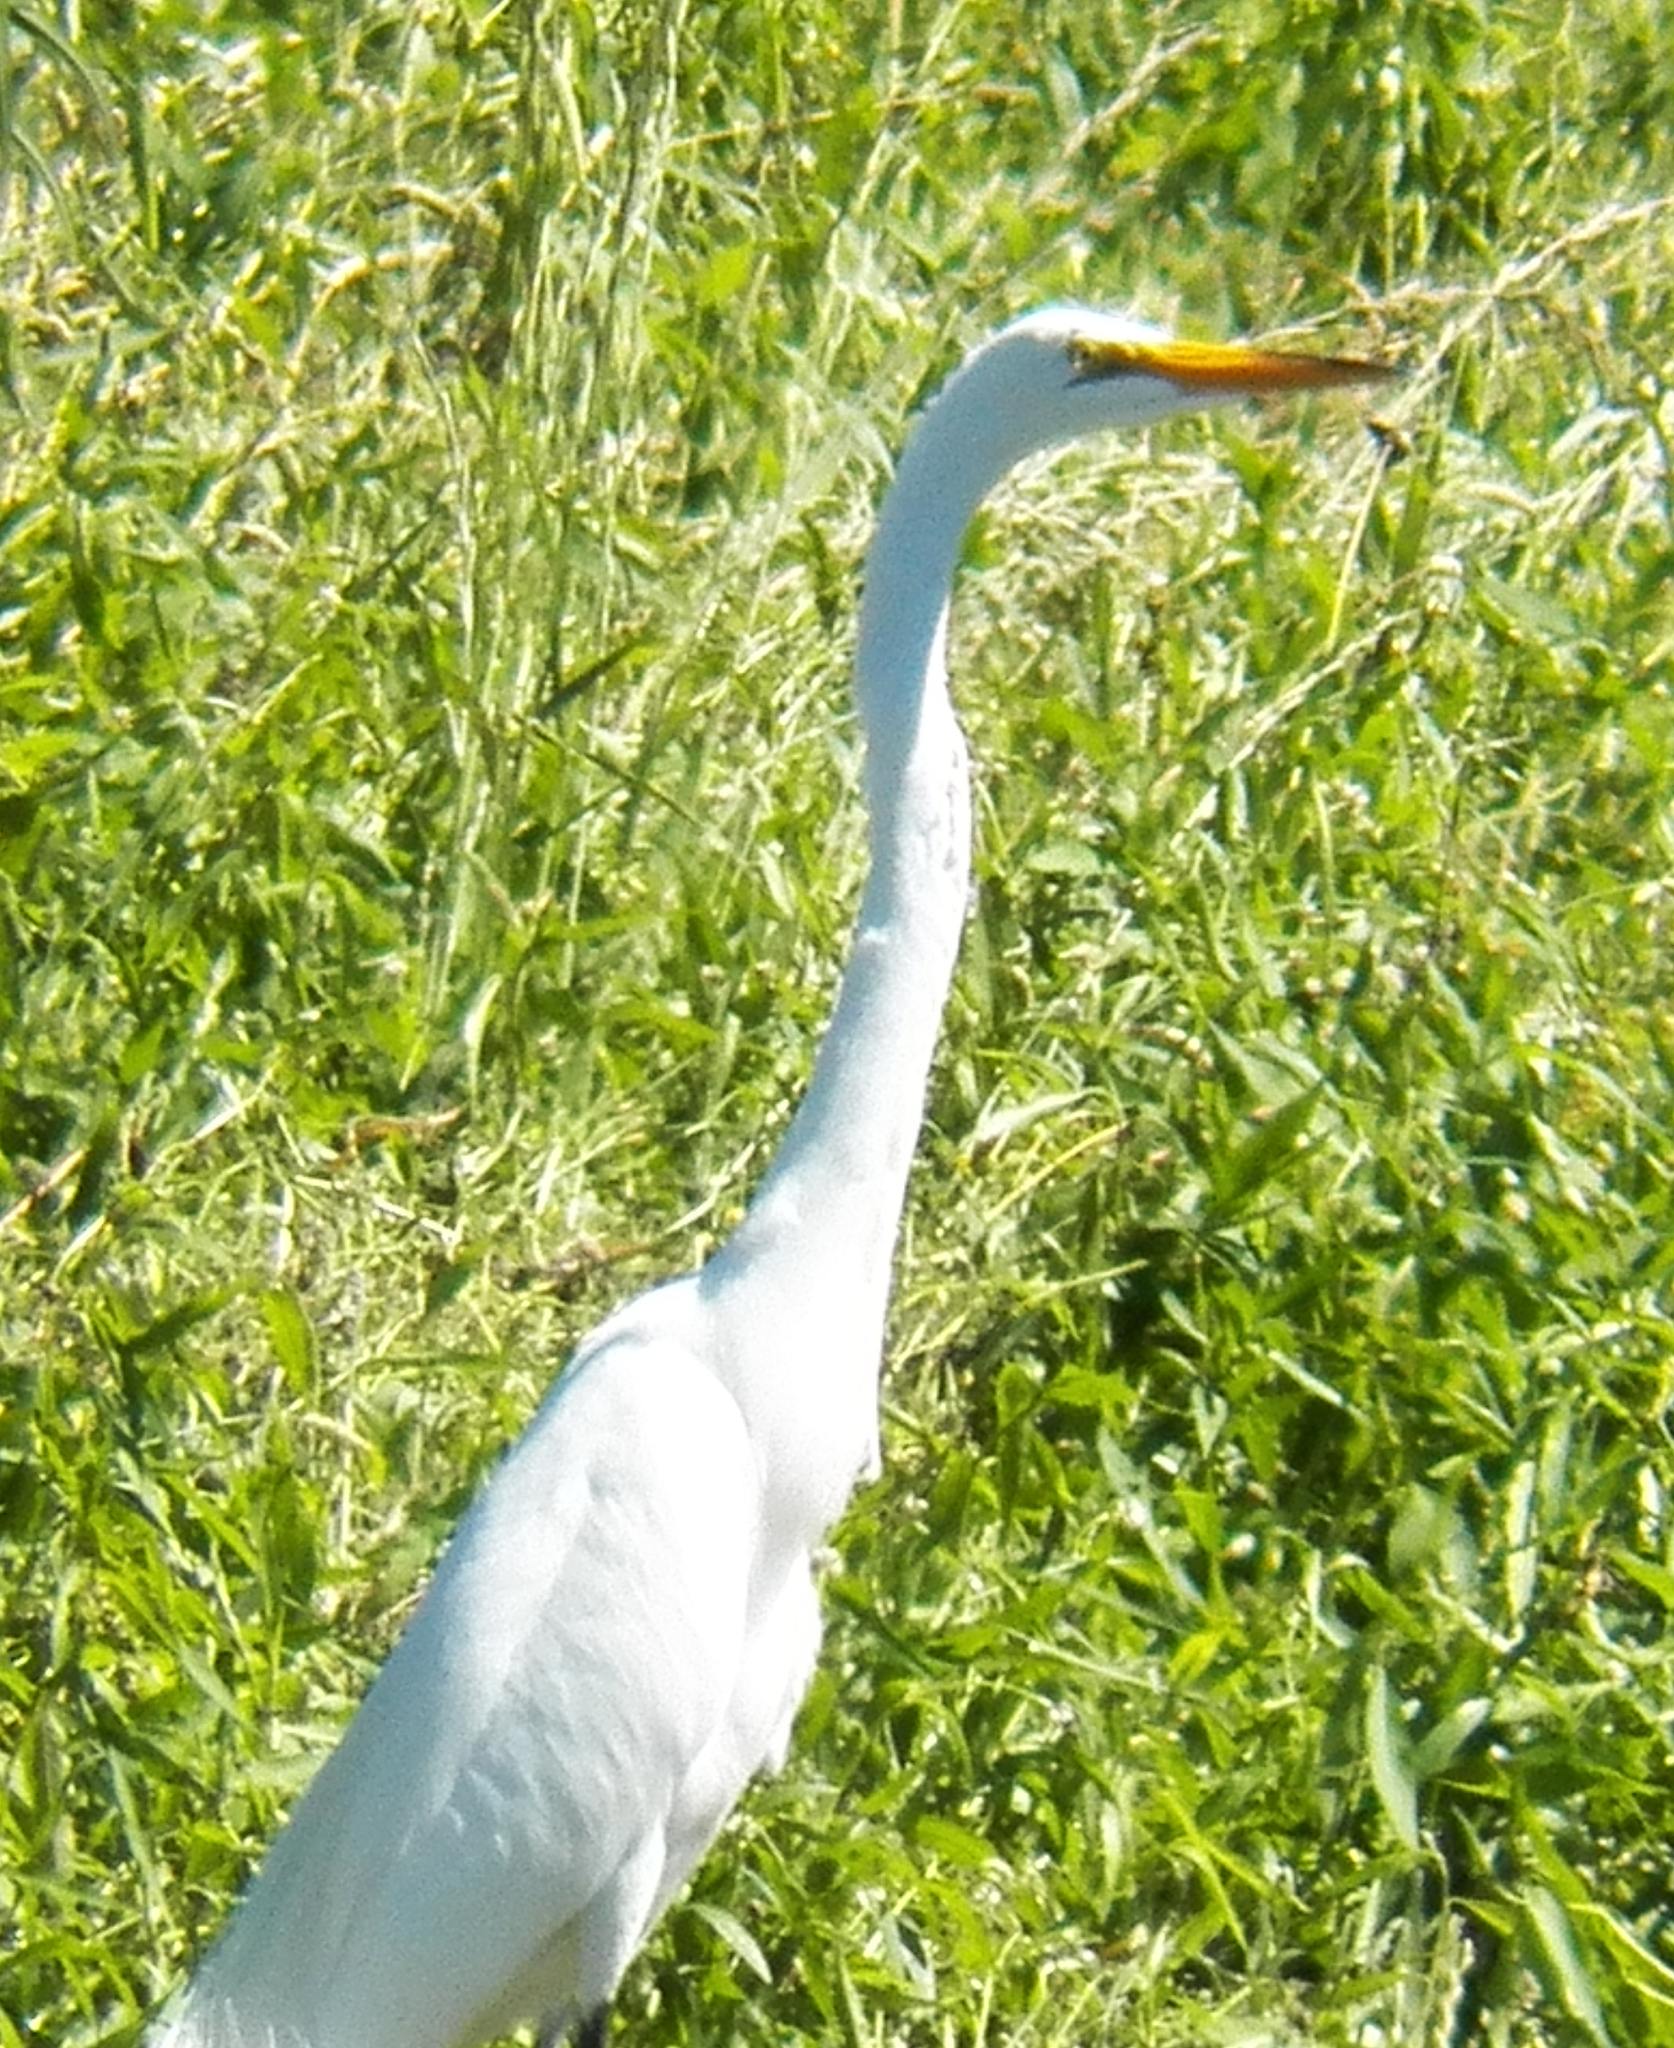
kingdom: Animalia
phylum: Chordata
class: Aves
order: Pelecaniformes
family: Ardeidae
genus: Ardea
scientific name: Ardea alba
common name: Great egret
